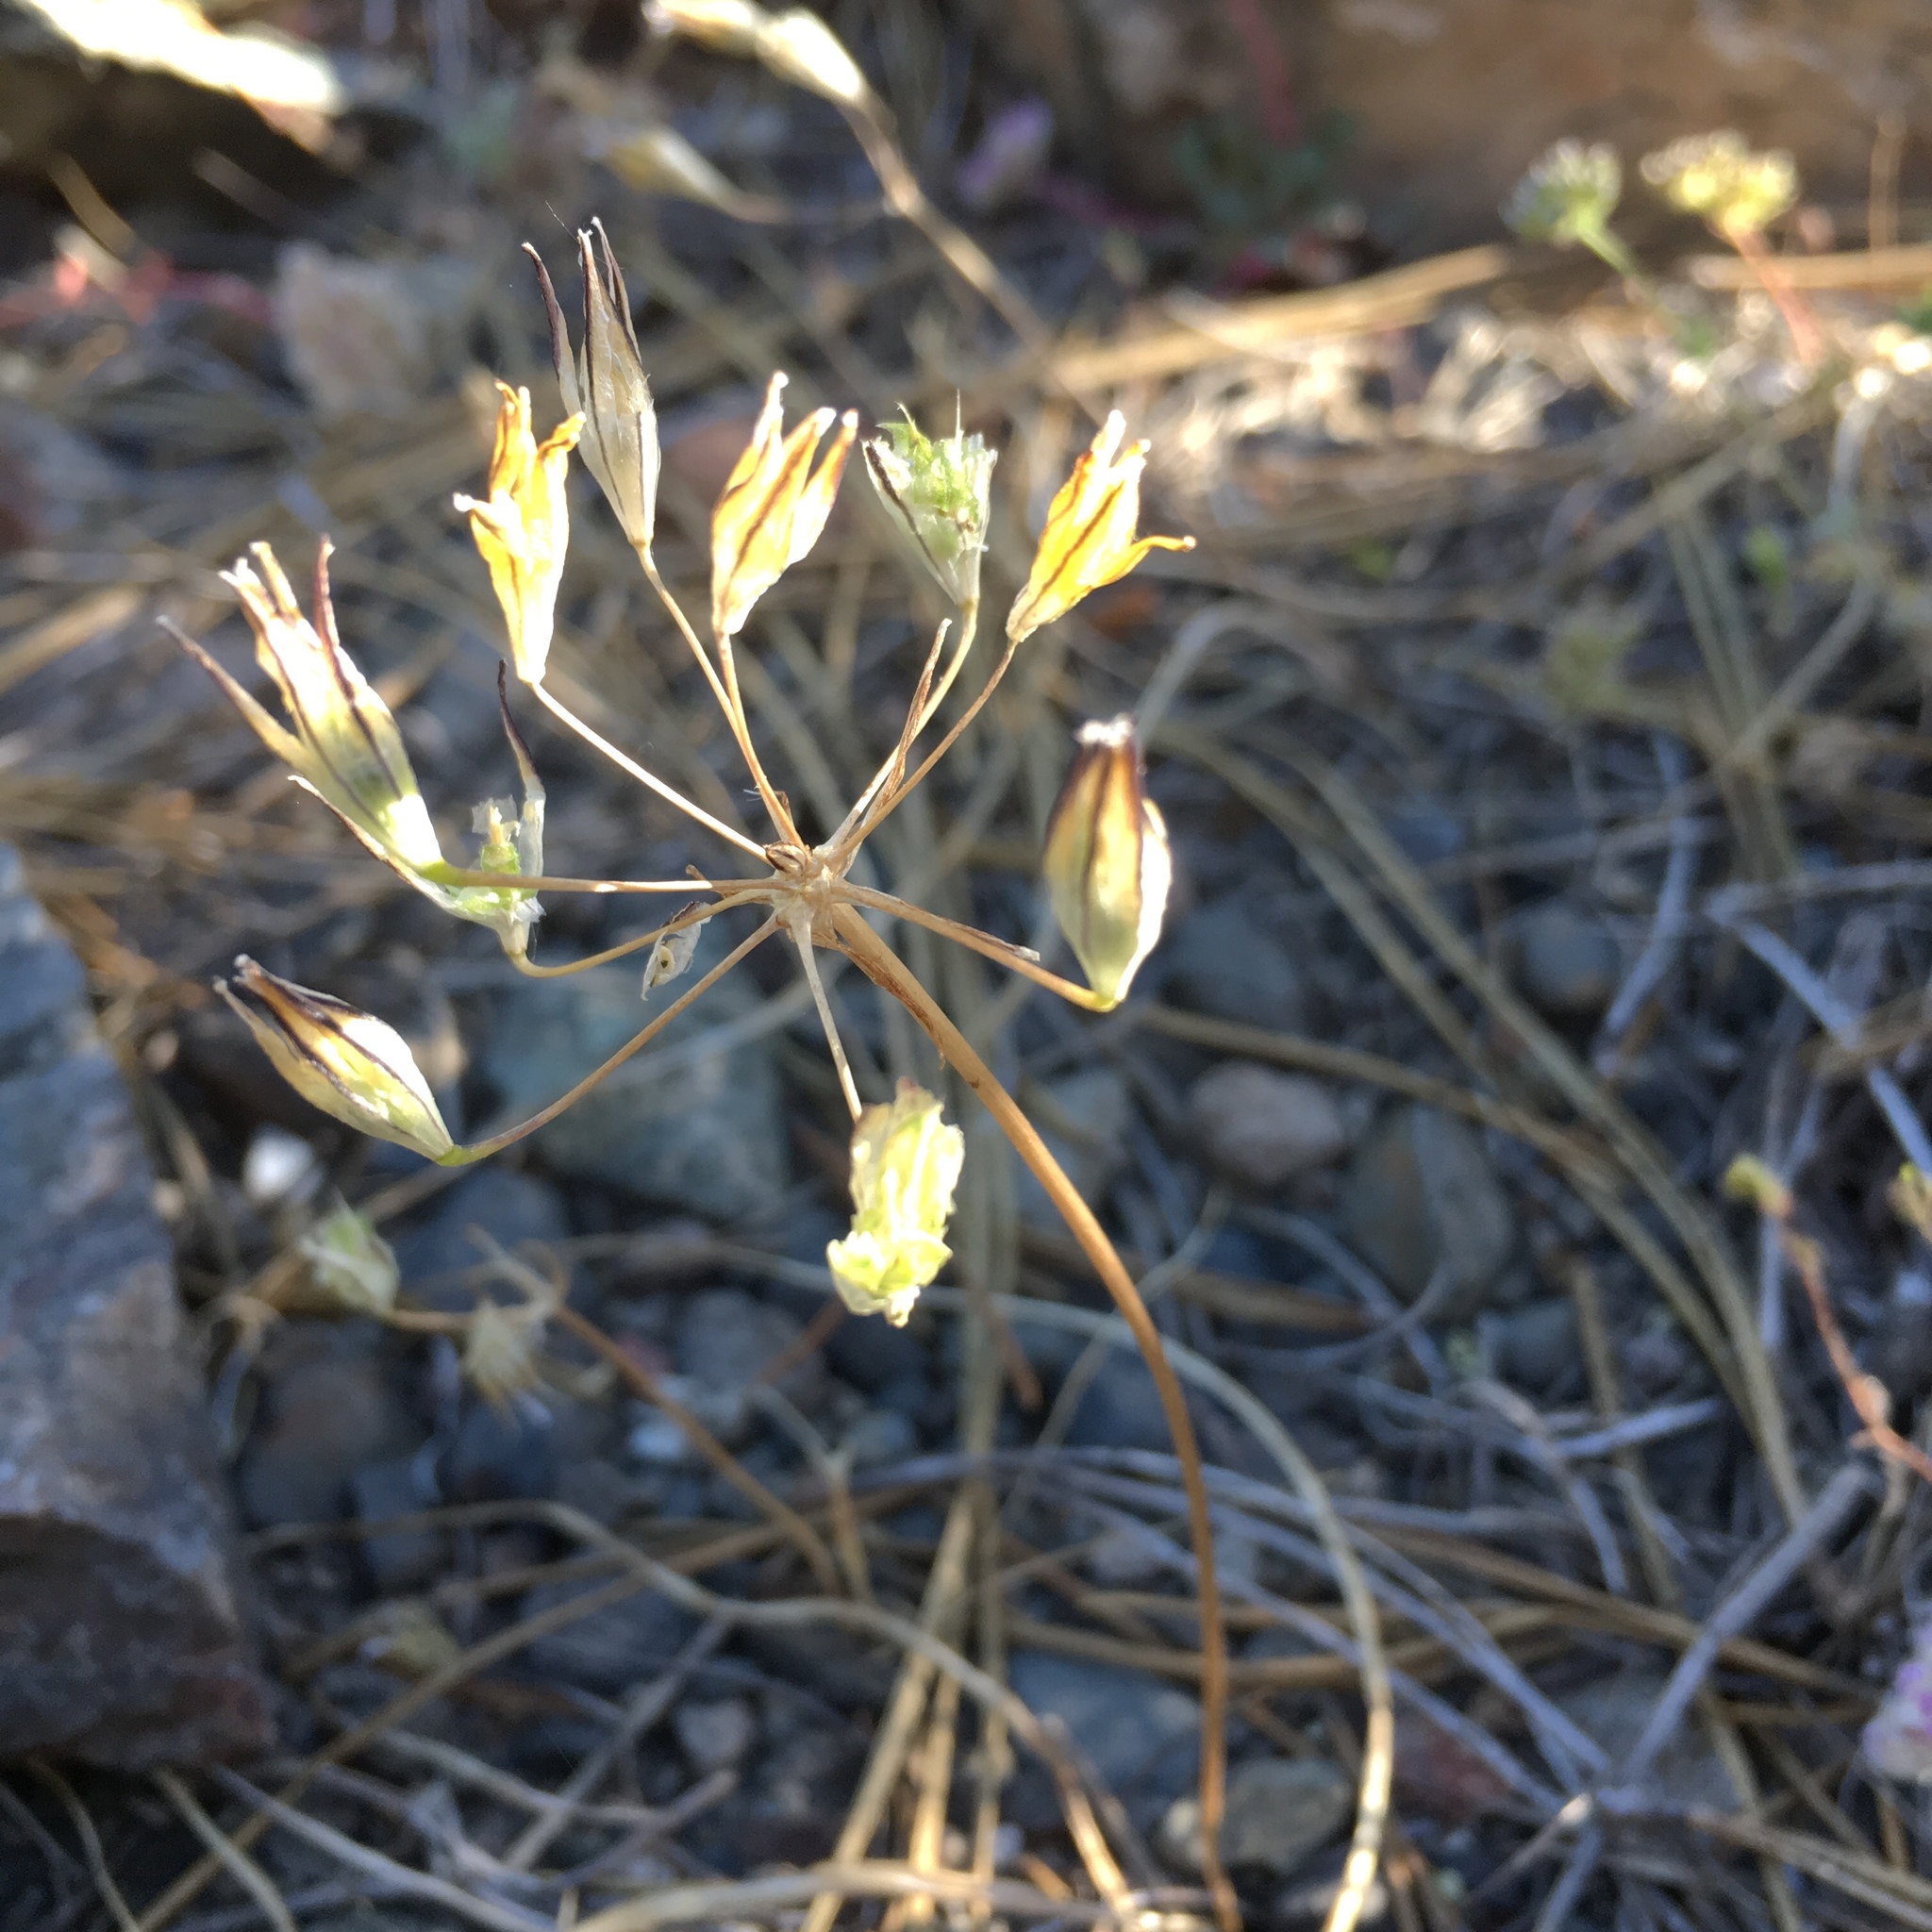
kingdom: Plantae
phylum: Tracheophyta
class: Liliopsida
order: Asparagales
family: Asparagaceae
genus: Triteleia
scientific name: Triteleia ixioides
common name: Yellow-brodiaea
